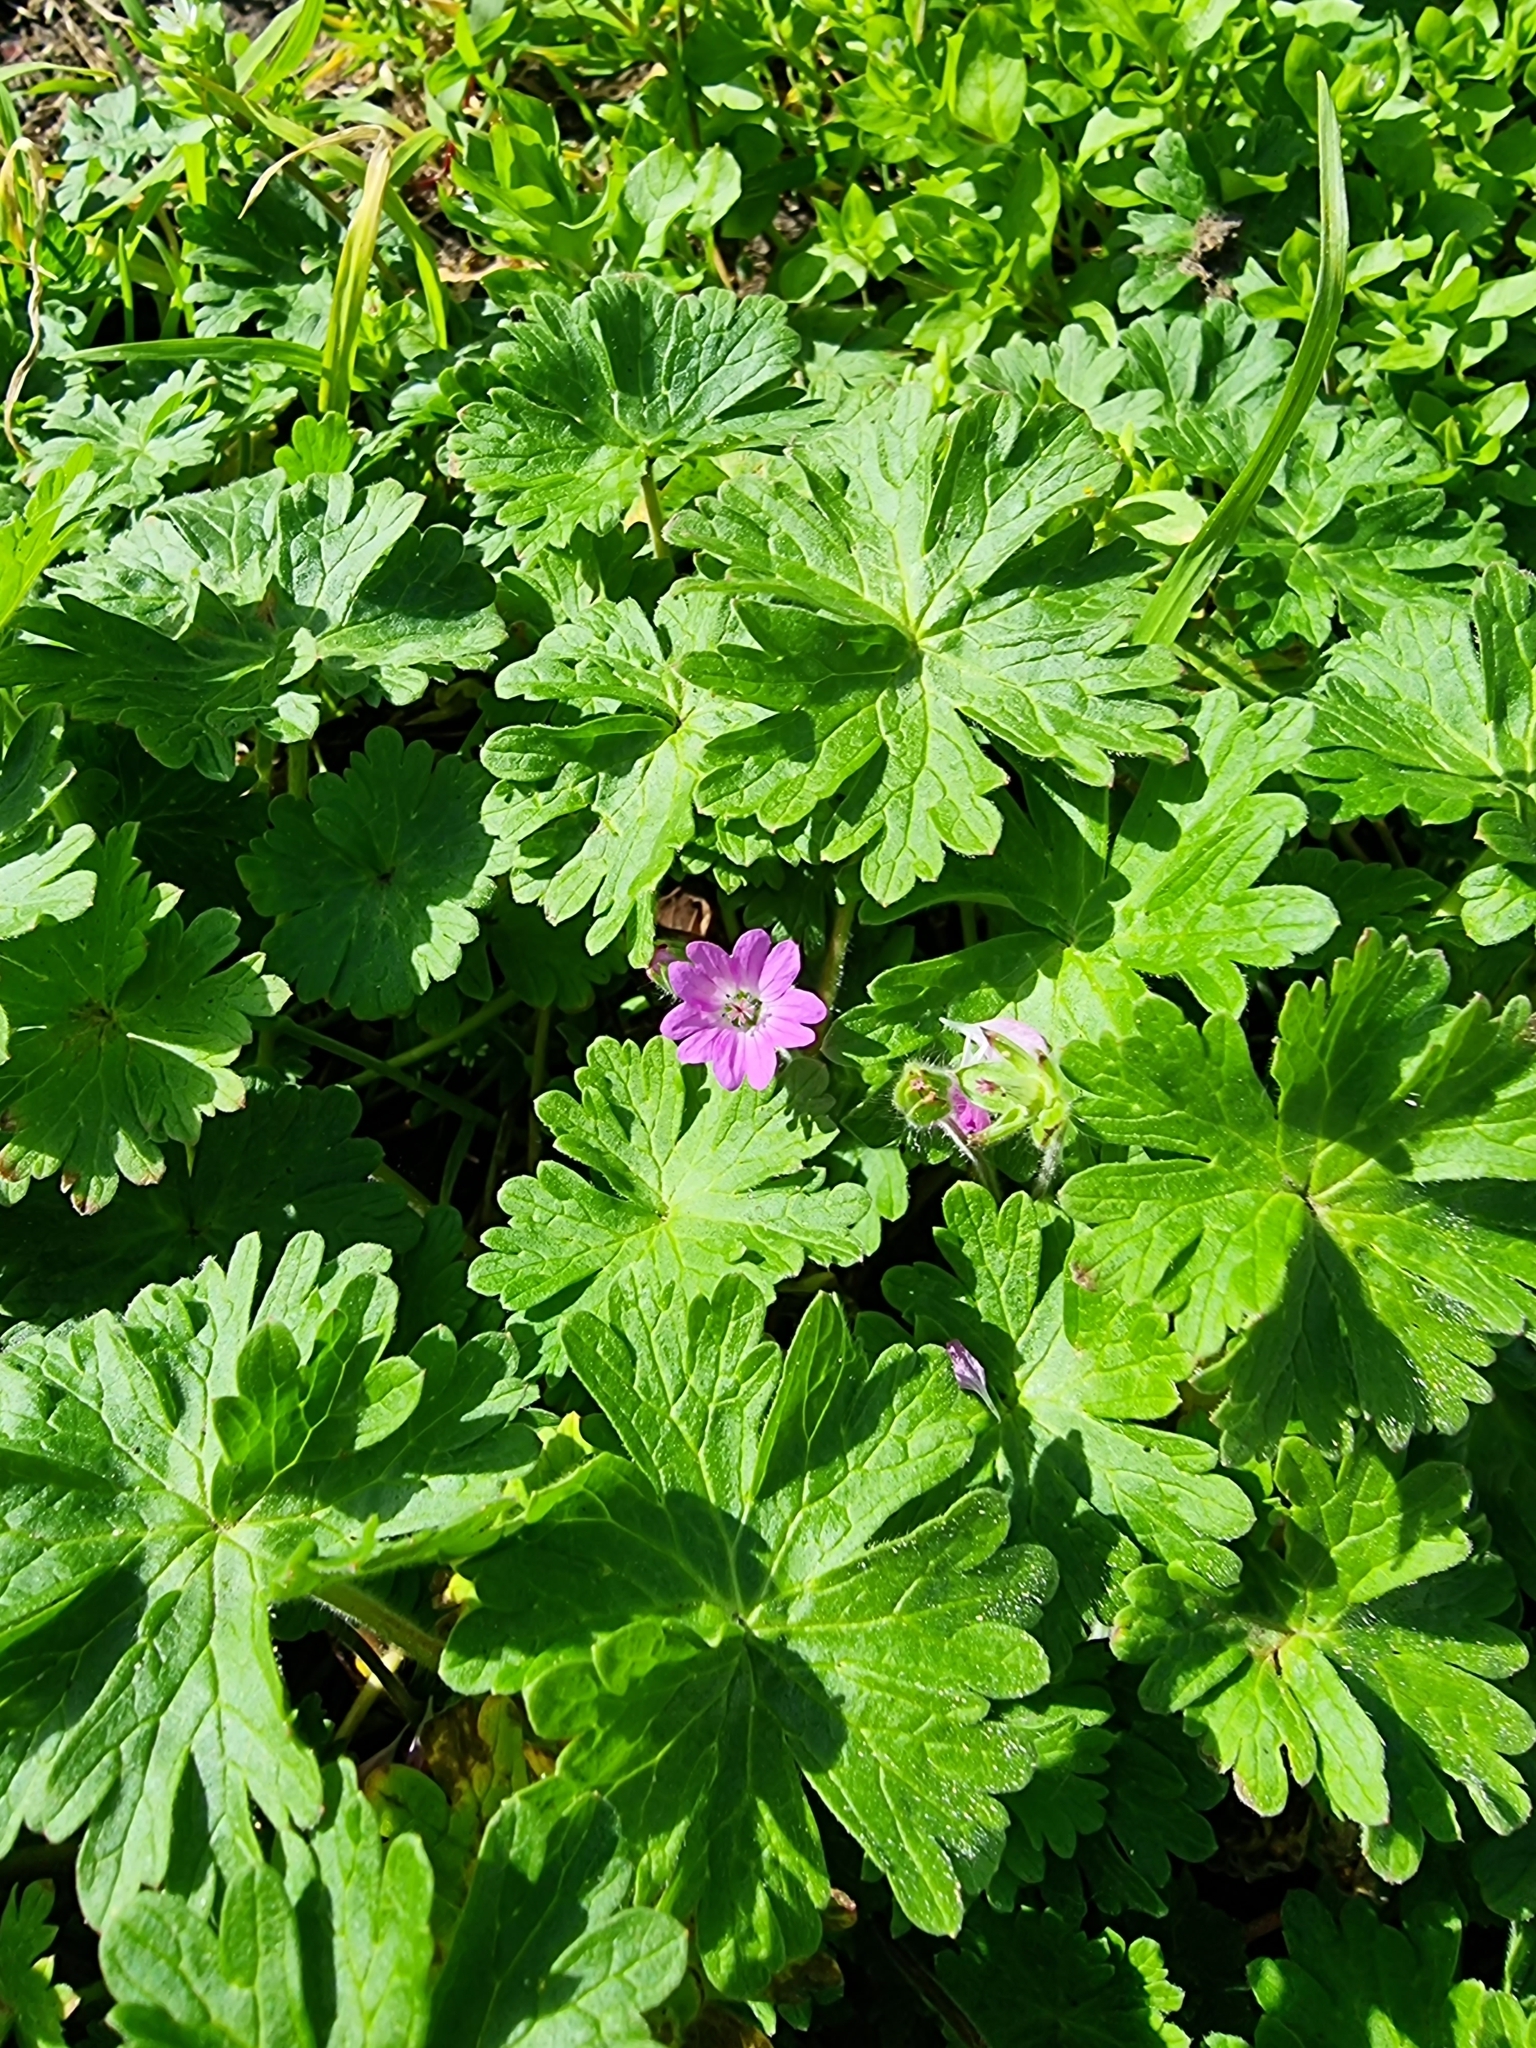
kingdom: Plantae
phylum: Tracheophyta
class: Magnoliopsida
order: Geraniales
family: Geraniaceae
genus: Geranium
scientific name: Geranium molle
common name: Dove's-foot crane's-bill
